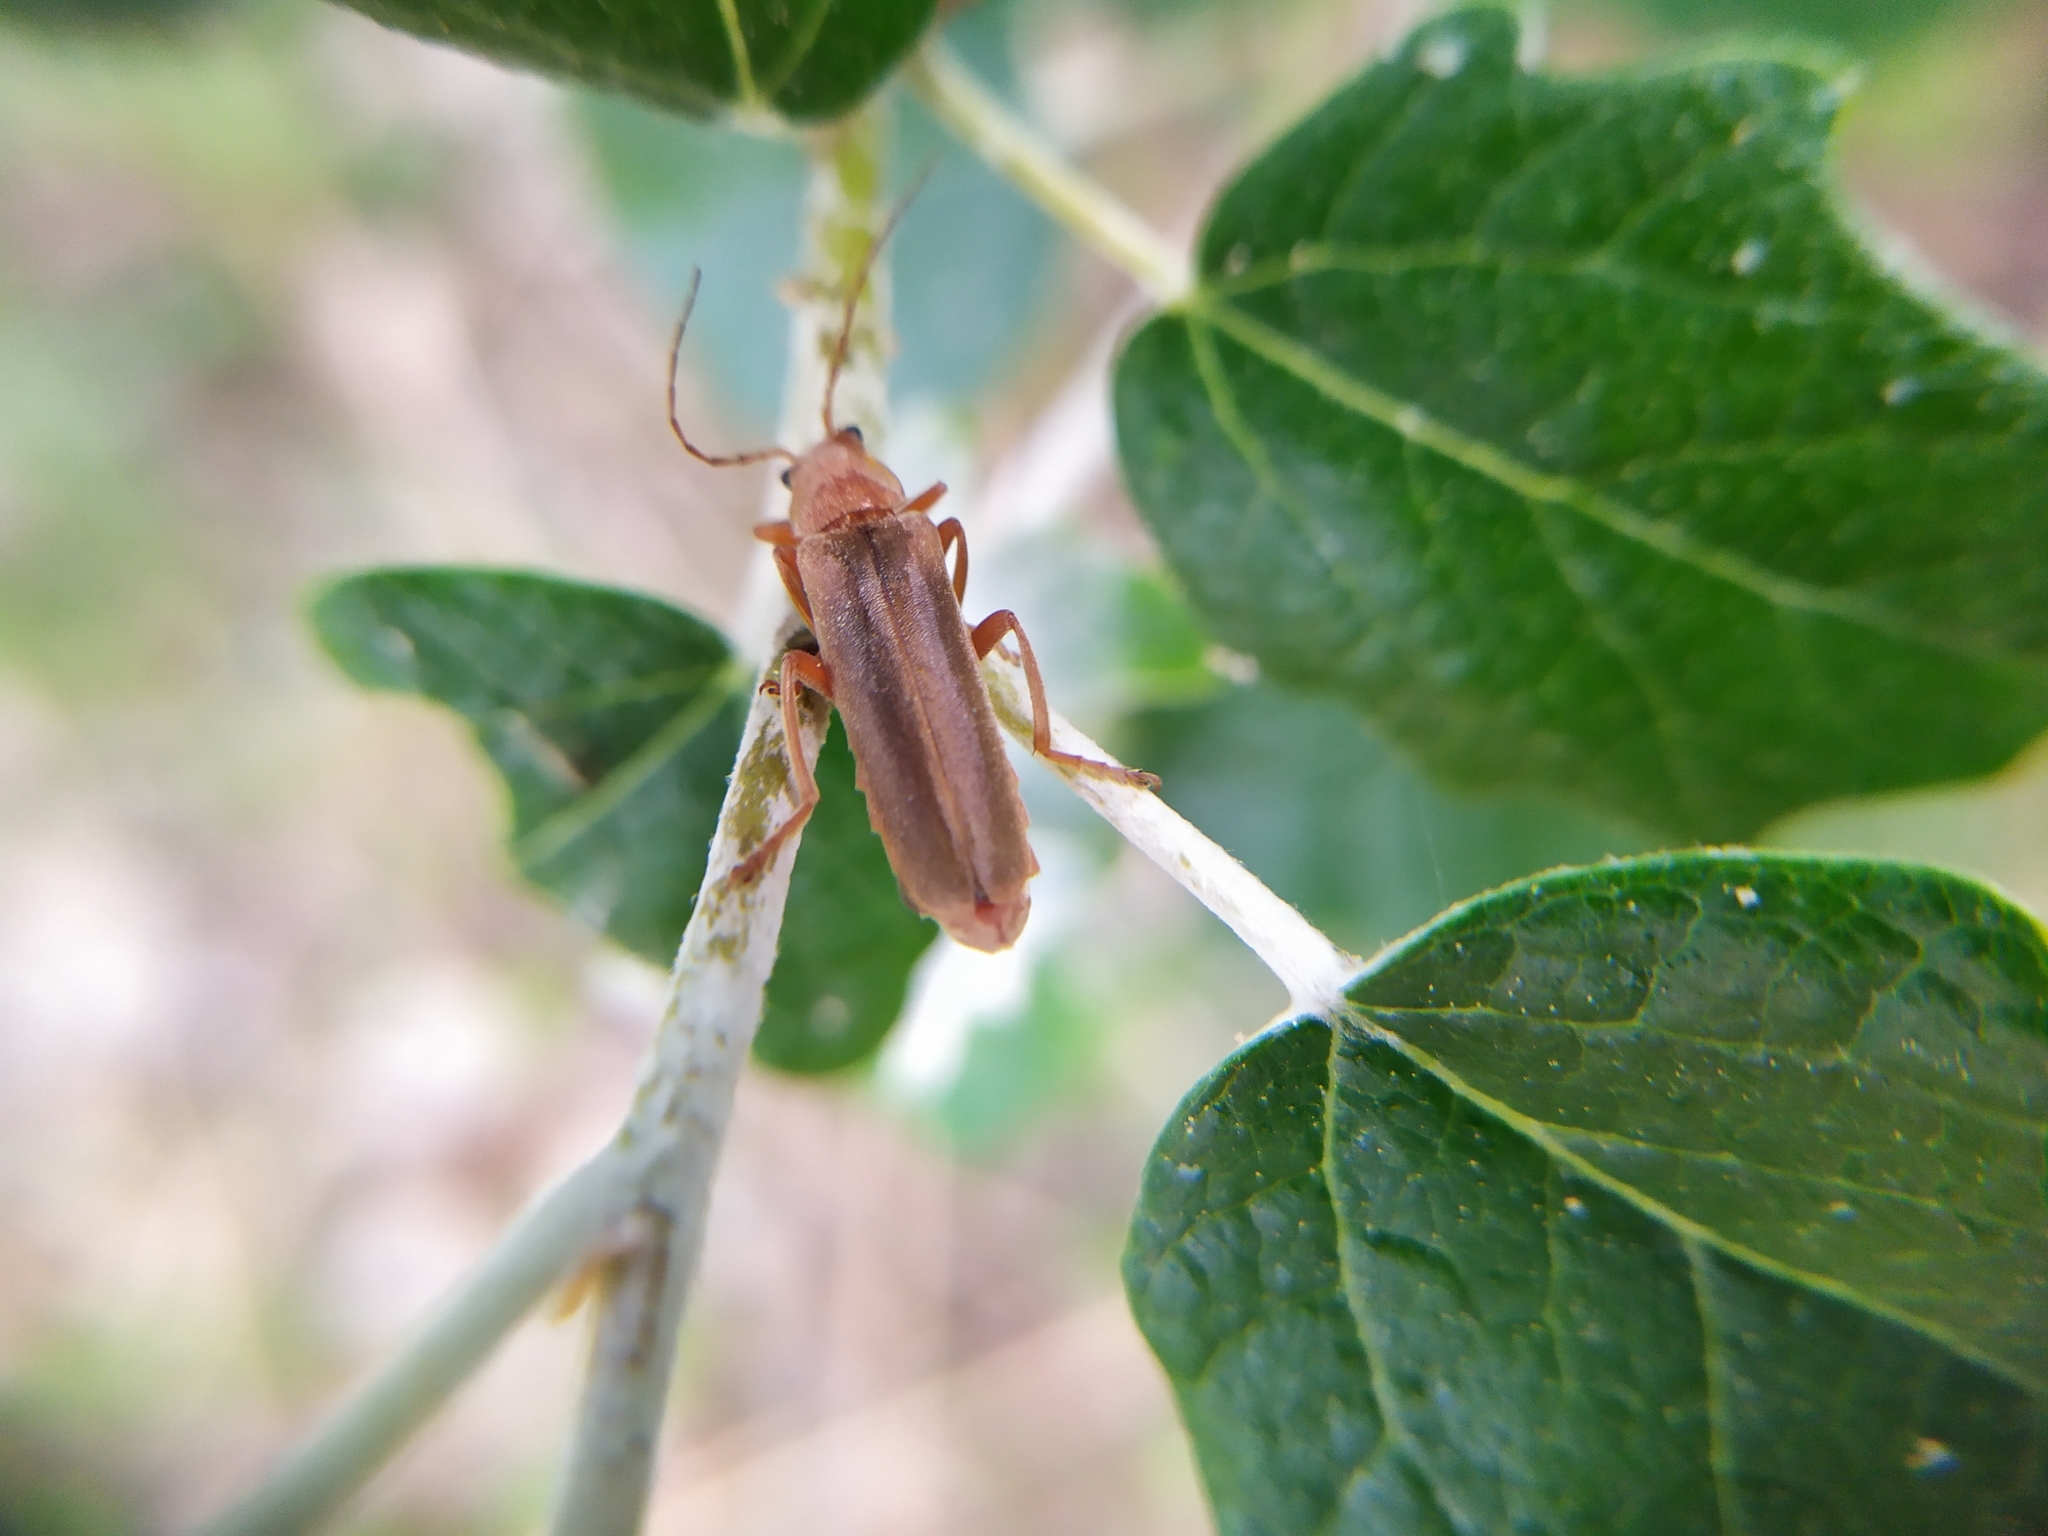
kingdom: Animalia
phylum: Arthropoda
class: Insecta
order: Coleoptera
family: Cantharidae
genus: Cantharis
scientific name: Cantharis rufa
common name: Red-spotted soldier beetle
